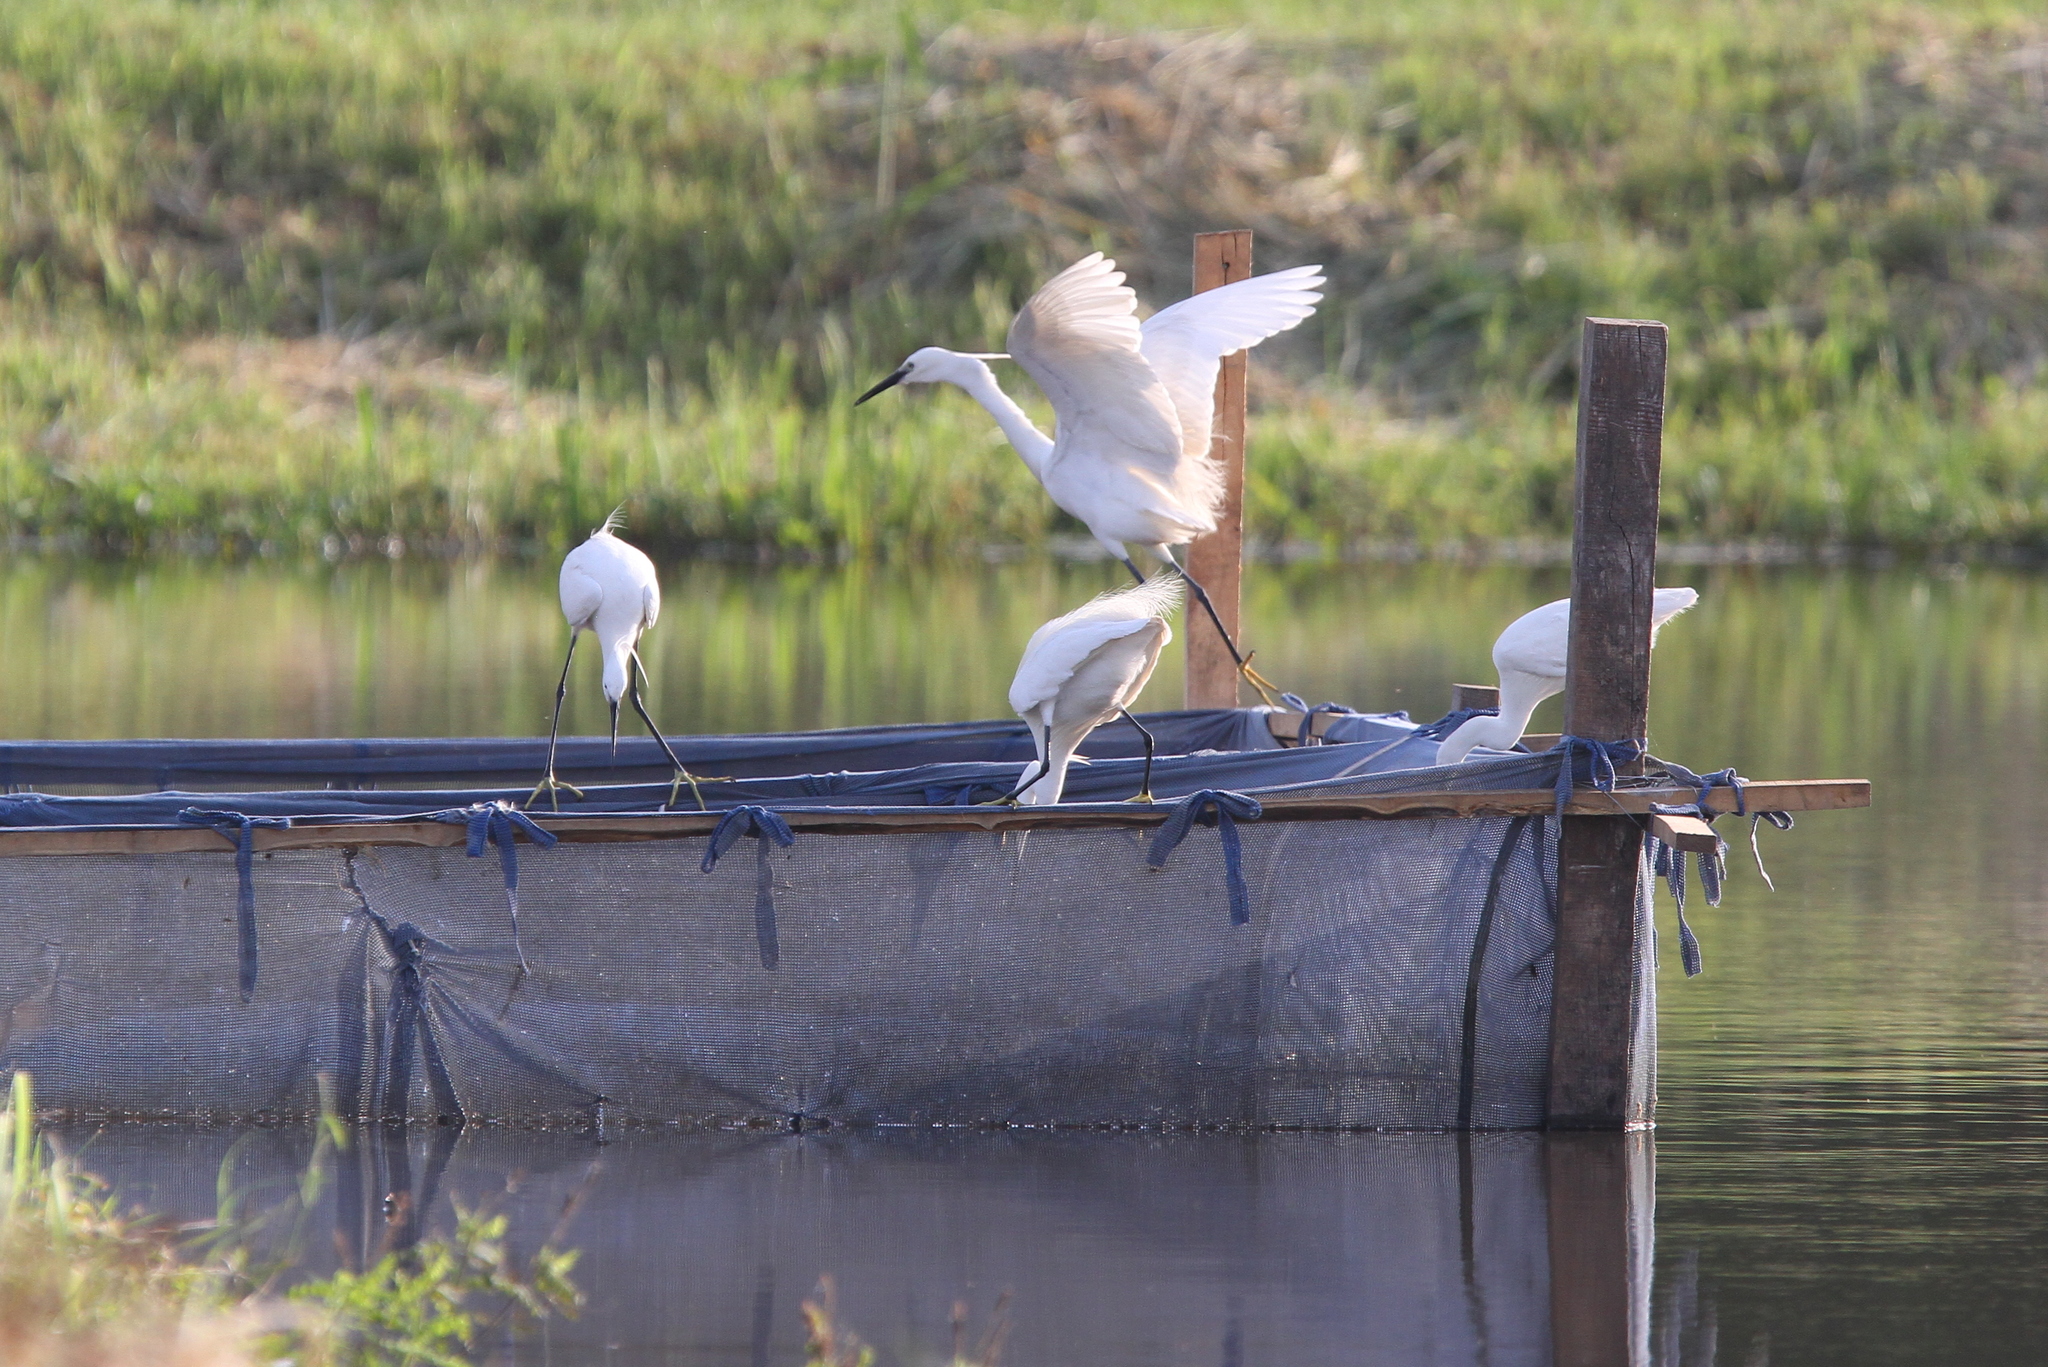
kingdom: Animalia
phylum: Chordata
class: Aves
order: Pelecaniformes
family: Ardeidae
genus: Egretta
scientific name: Egretta garzetta
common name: Little egret
